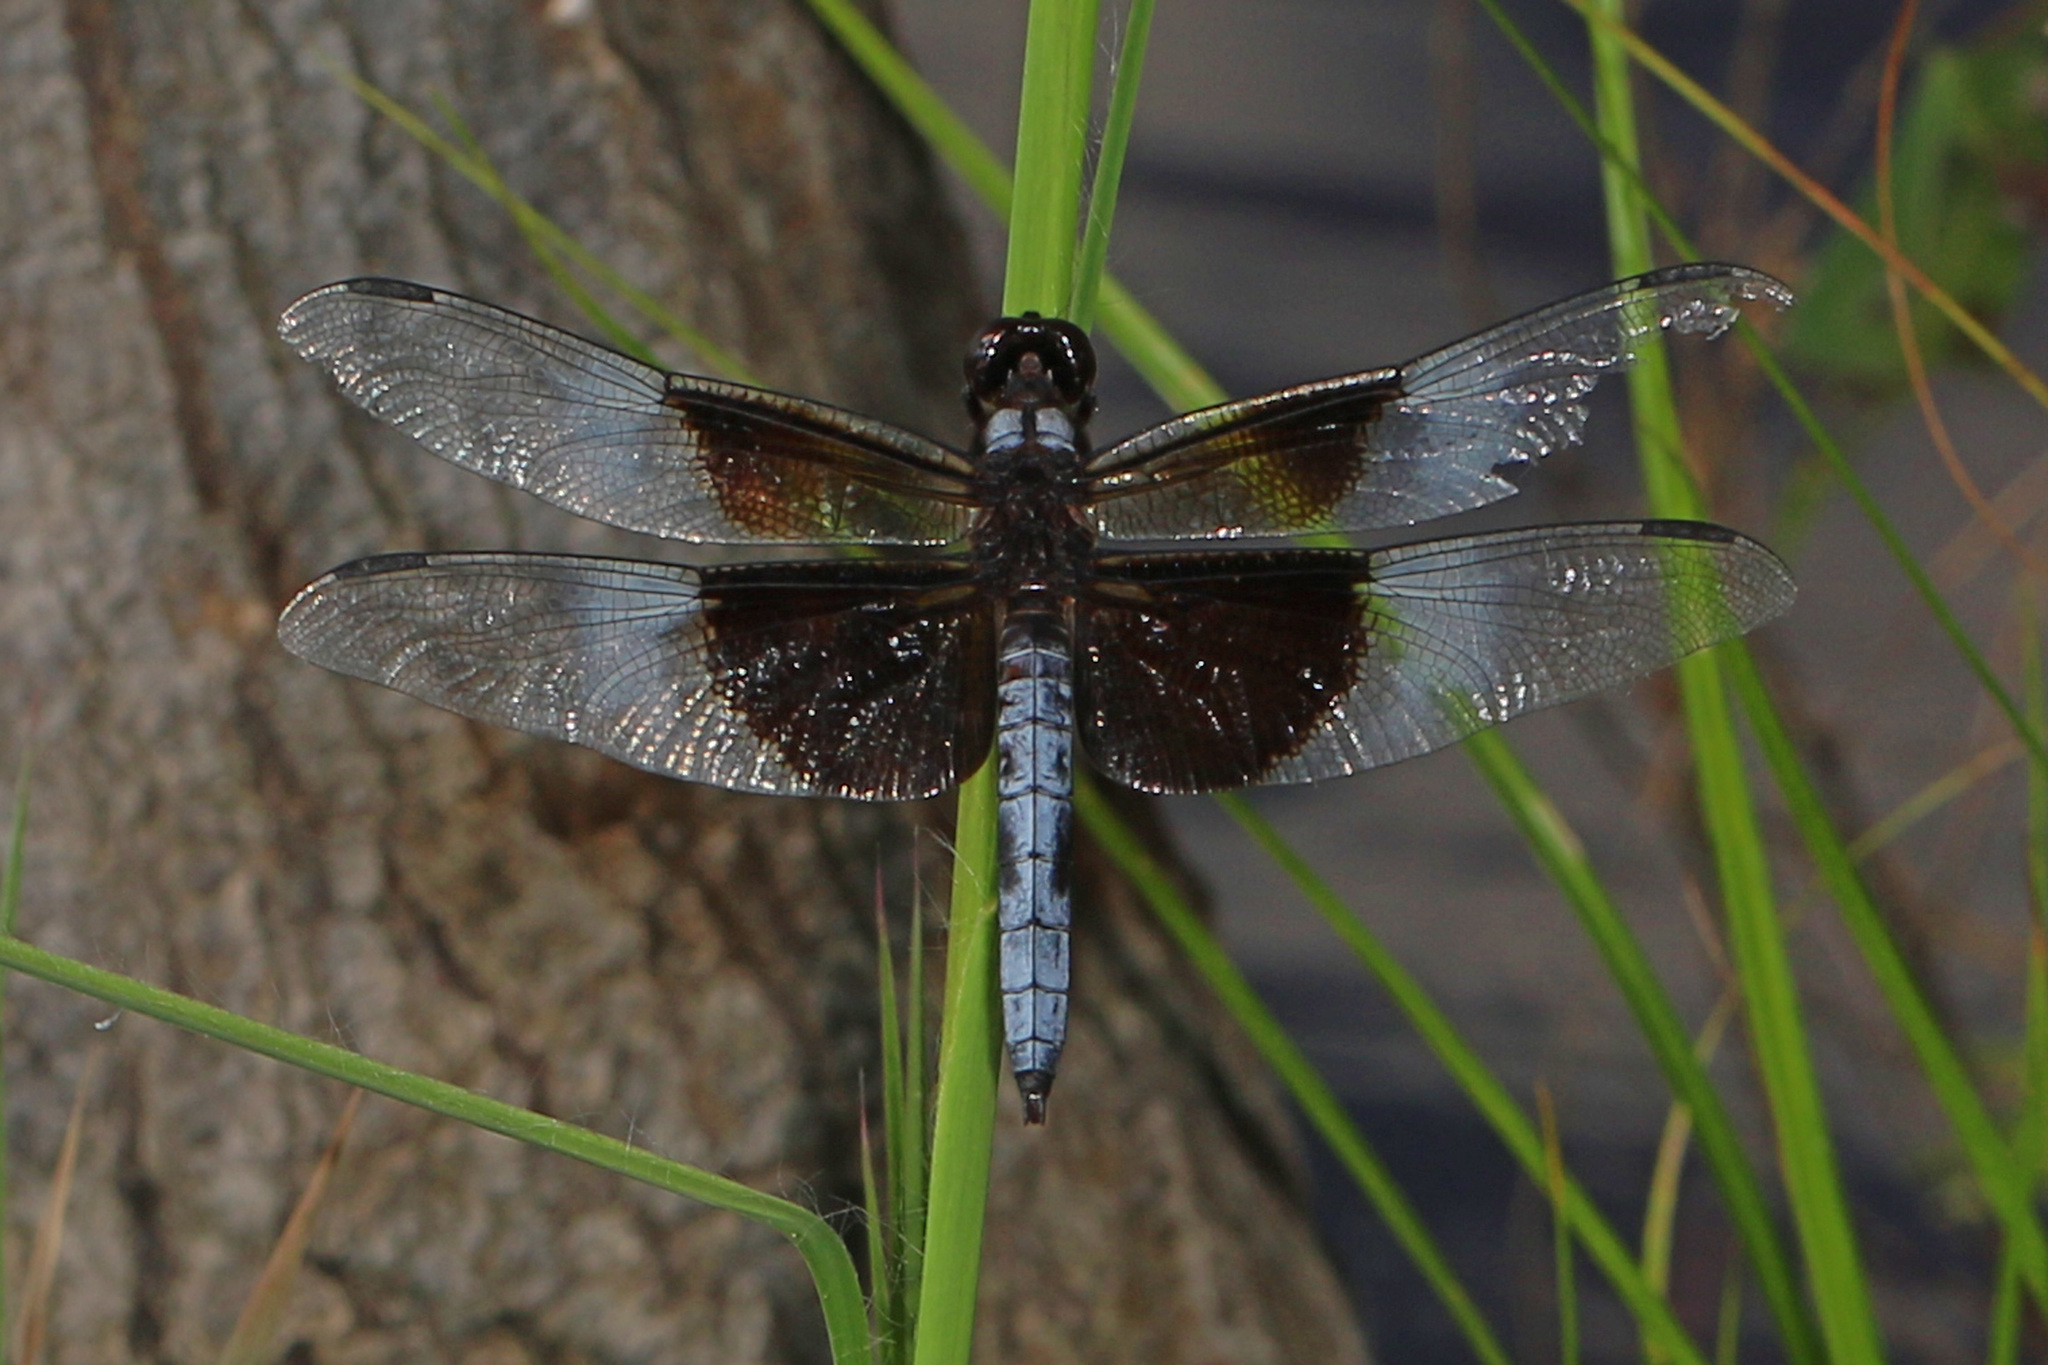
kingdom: Animalia
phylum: Arthropoda
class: Insecta
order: Odonata
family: Libellulidae
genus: Libellula
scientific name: Libellula luctuosa
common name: Widow skimmer
